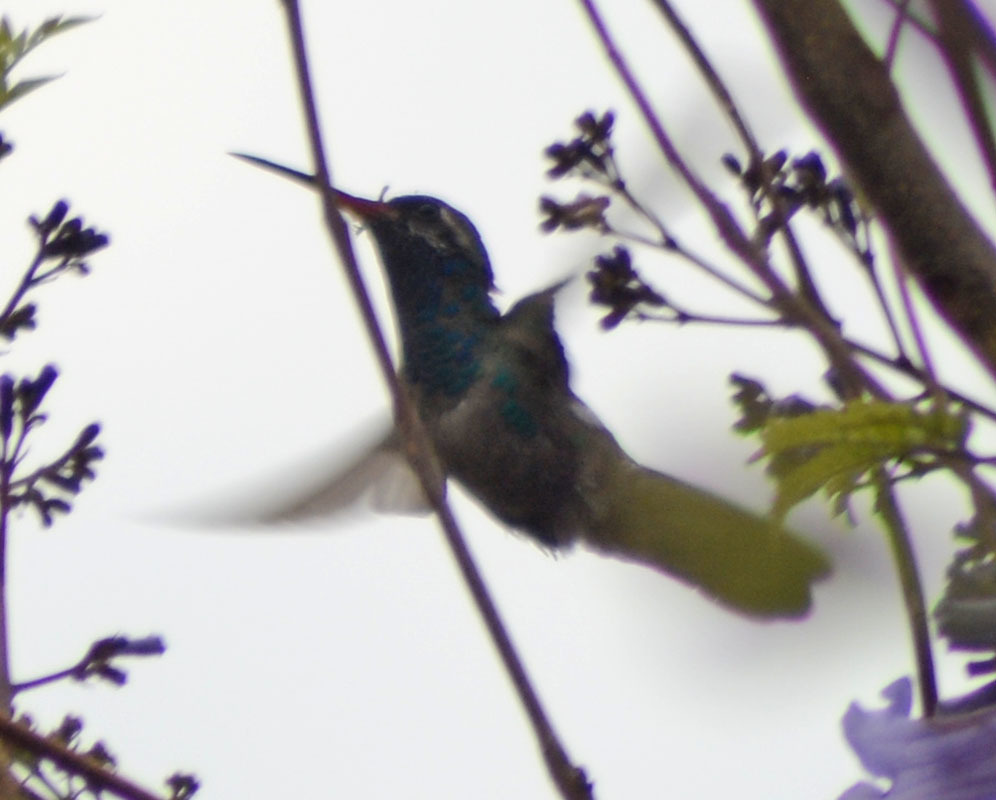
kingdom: Animalia
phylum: Chordata
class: Aves
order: Apodiformes
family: Trochilidae
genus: Cynanthus
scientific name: Cynanthus latirostris
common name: Broad-billed hummingbird
